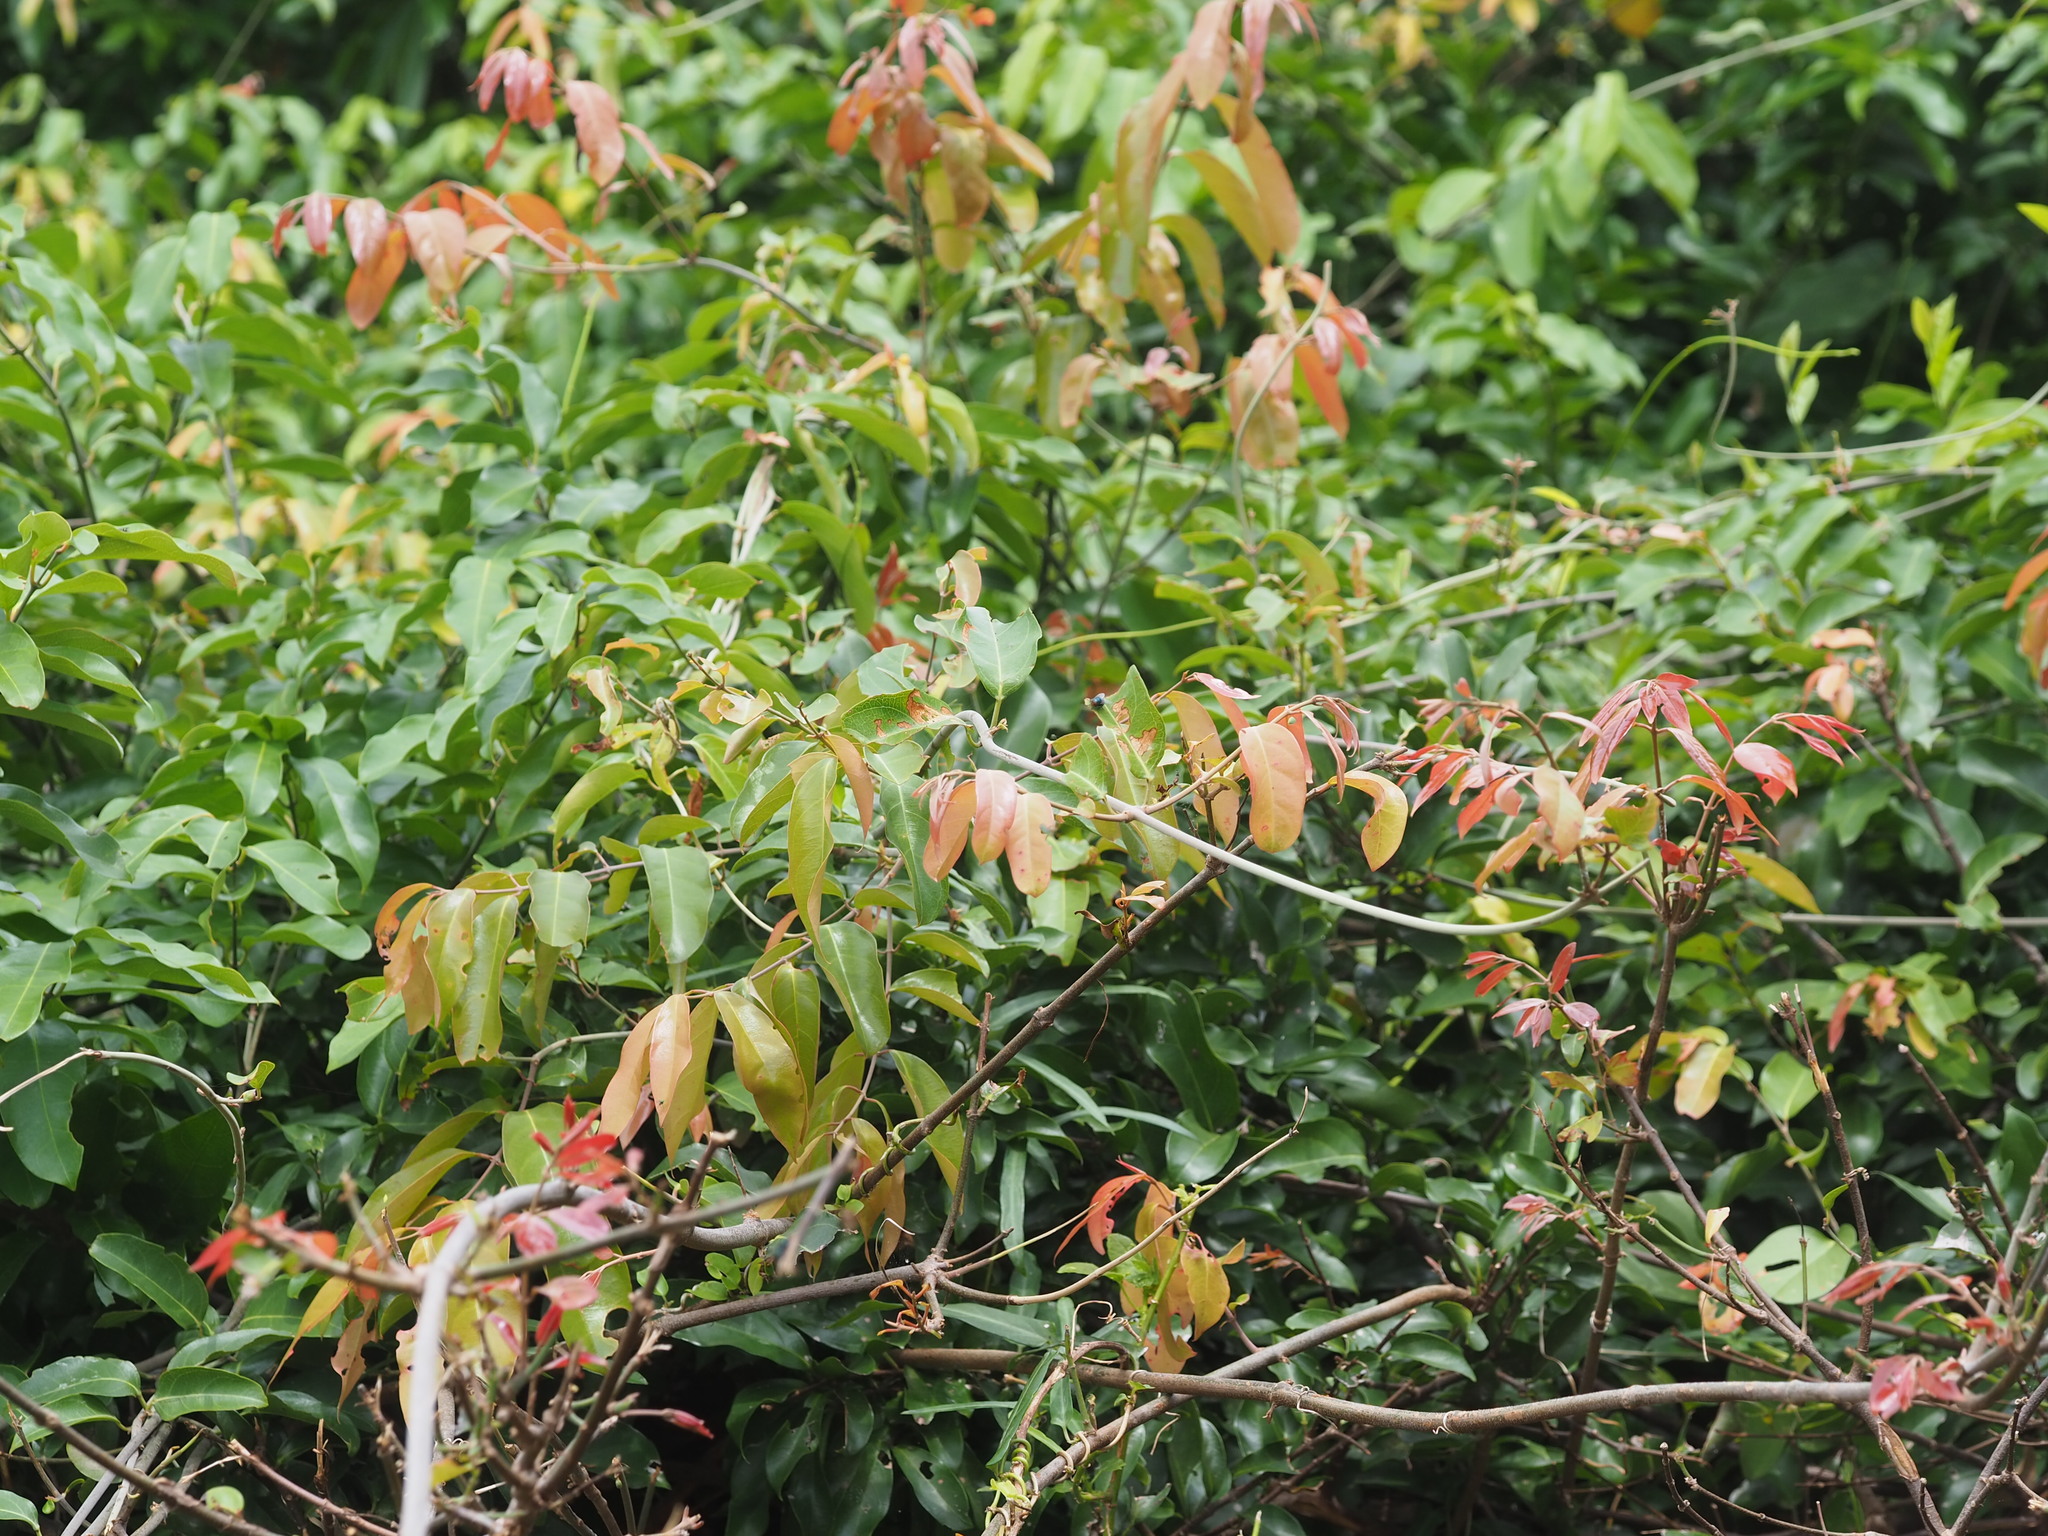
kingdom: Plantae
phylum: Tracheophyta
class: Magnoliopsida
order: Malpighiales
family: Malpighiaceae
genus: Hiptage
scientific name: Hiptage benghalensis
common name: Hiptage
